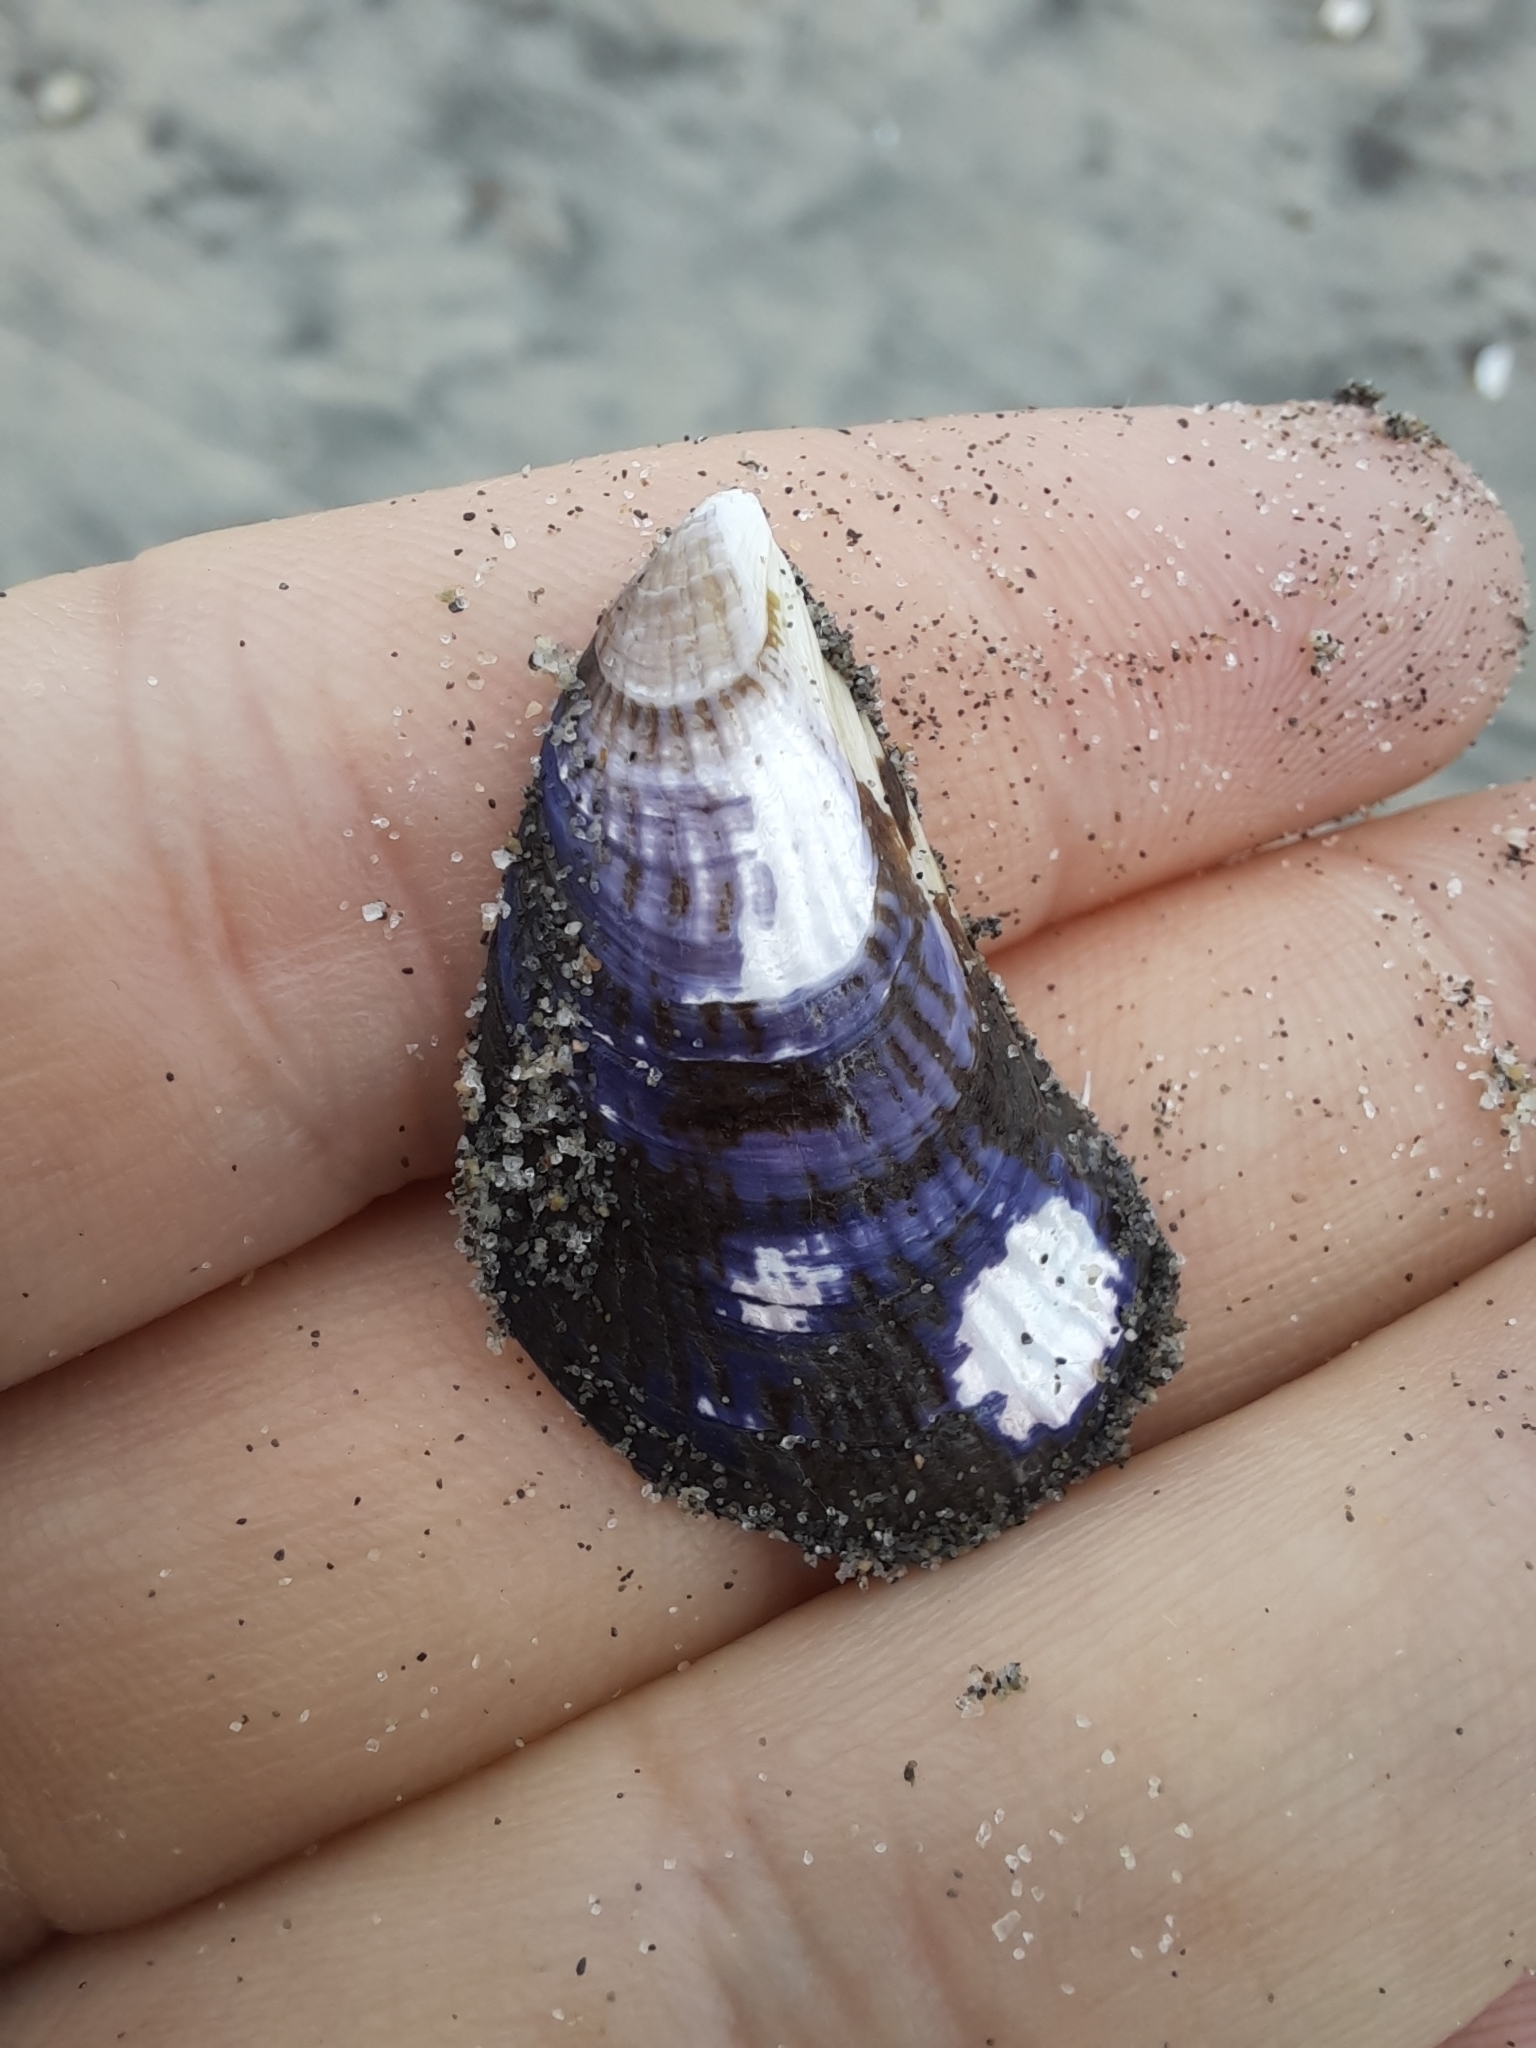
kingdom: Animalia
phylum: Mollusca
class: Bivalvia
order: Mytilida
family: Mytilidae
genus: Aulacomya
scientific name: Aulacomya maoriana
